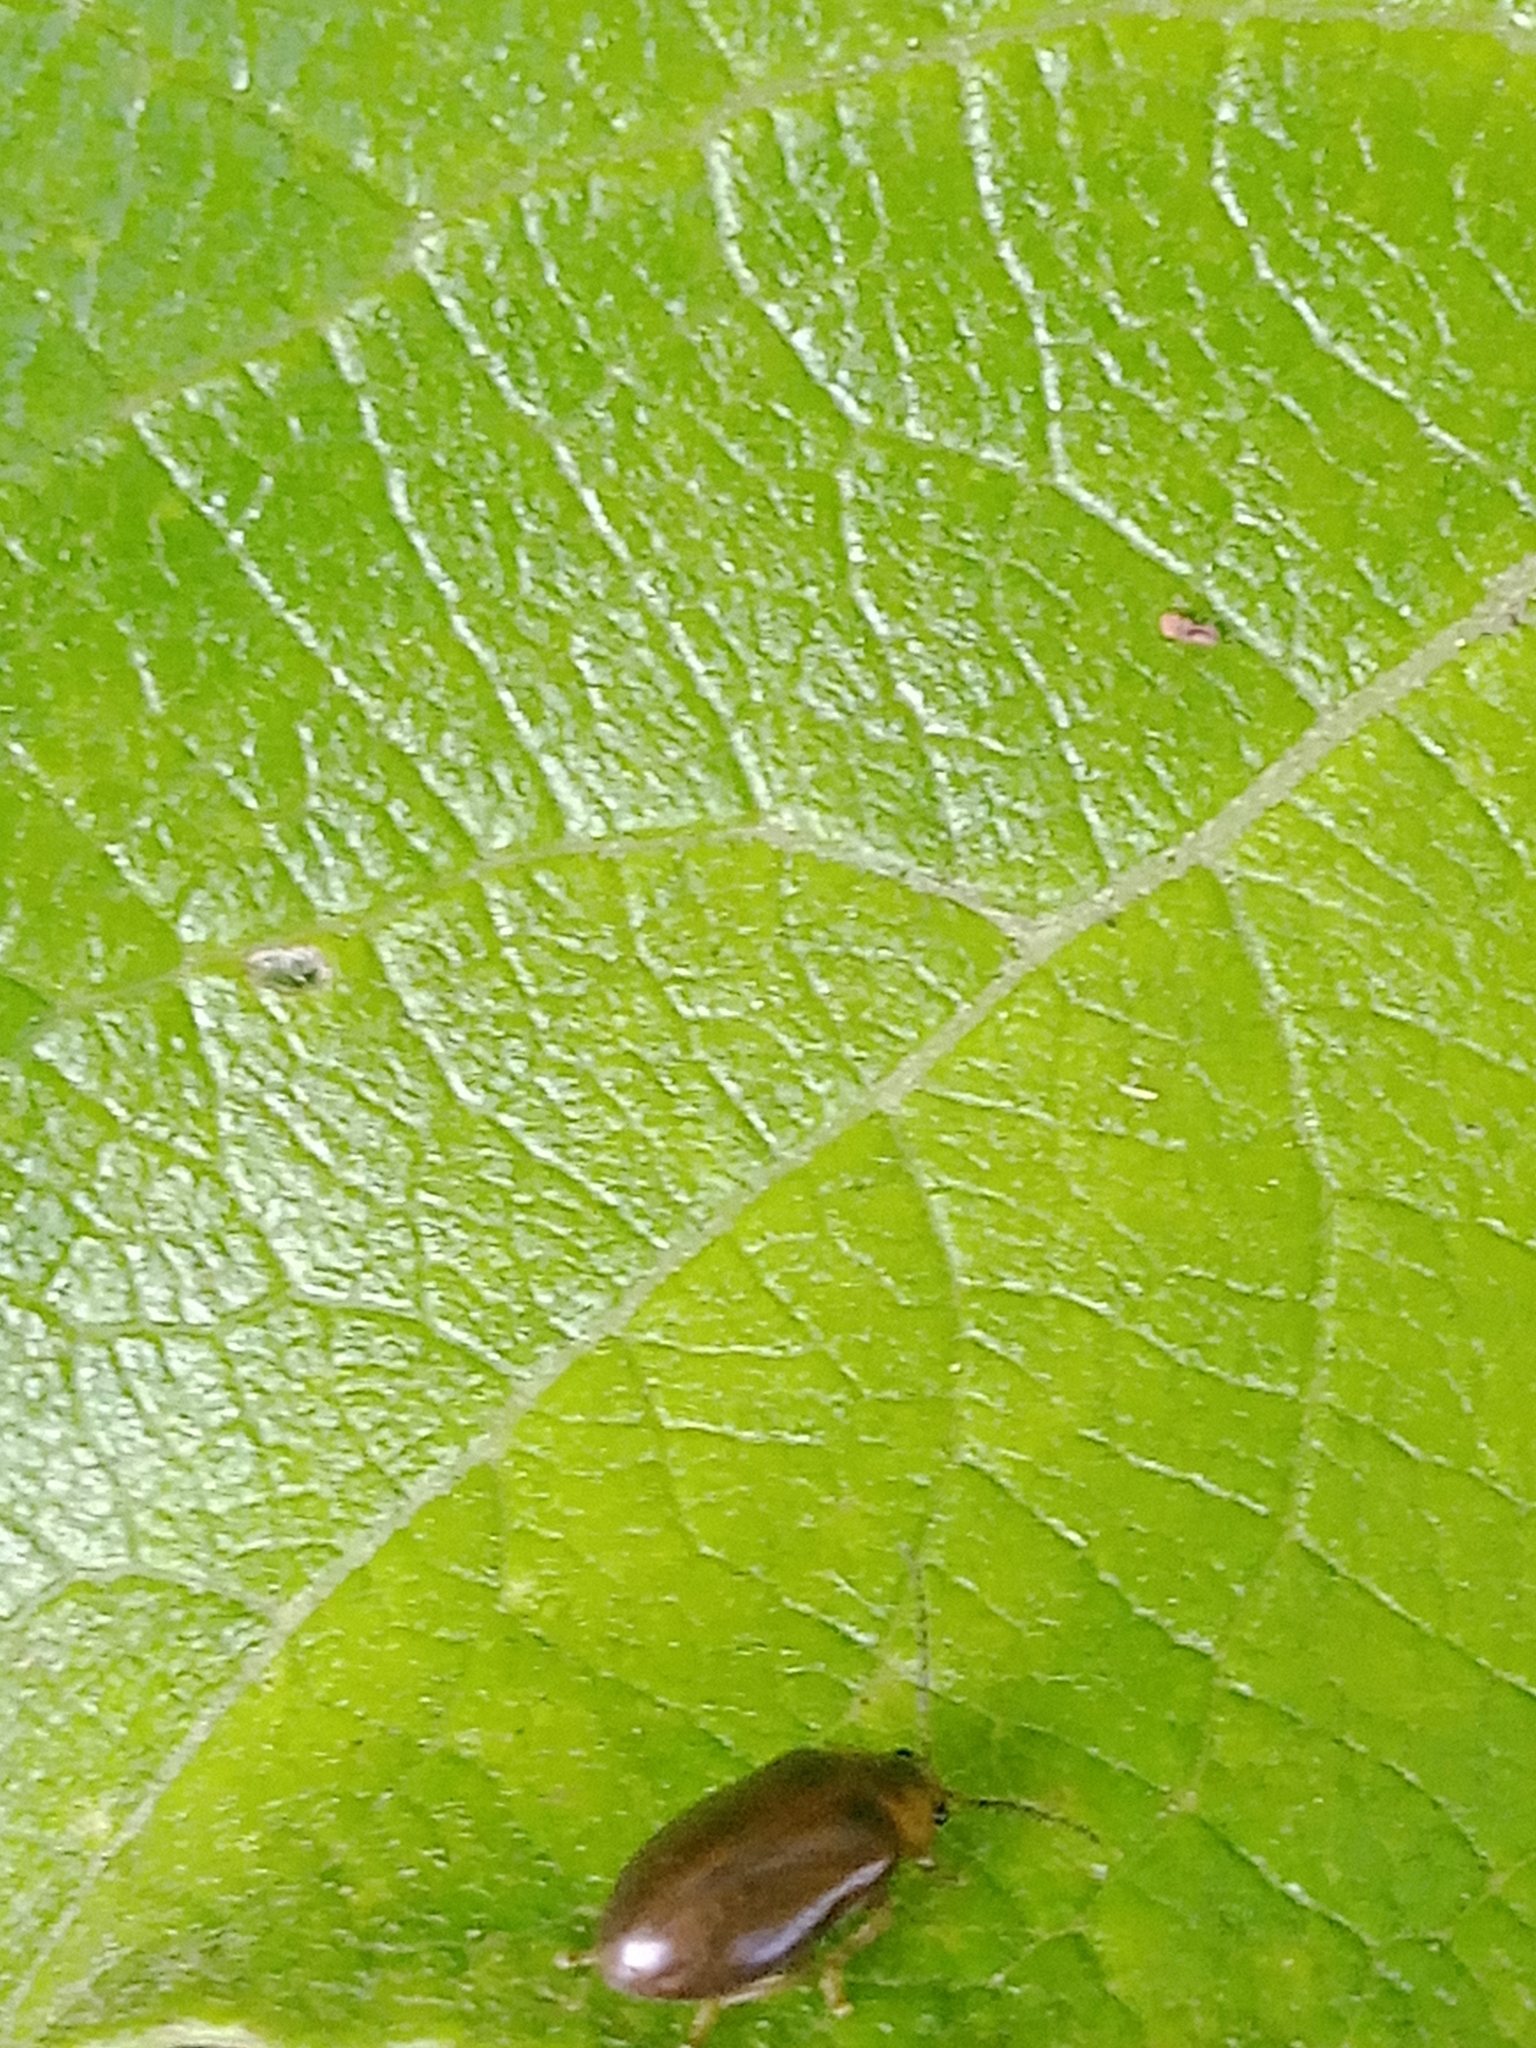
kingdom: Animalia
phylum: Arthropoda
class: Insecta
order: Coleoptera
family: Scirtidae
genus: Microcara
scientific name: Microcara testacea
